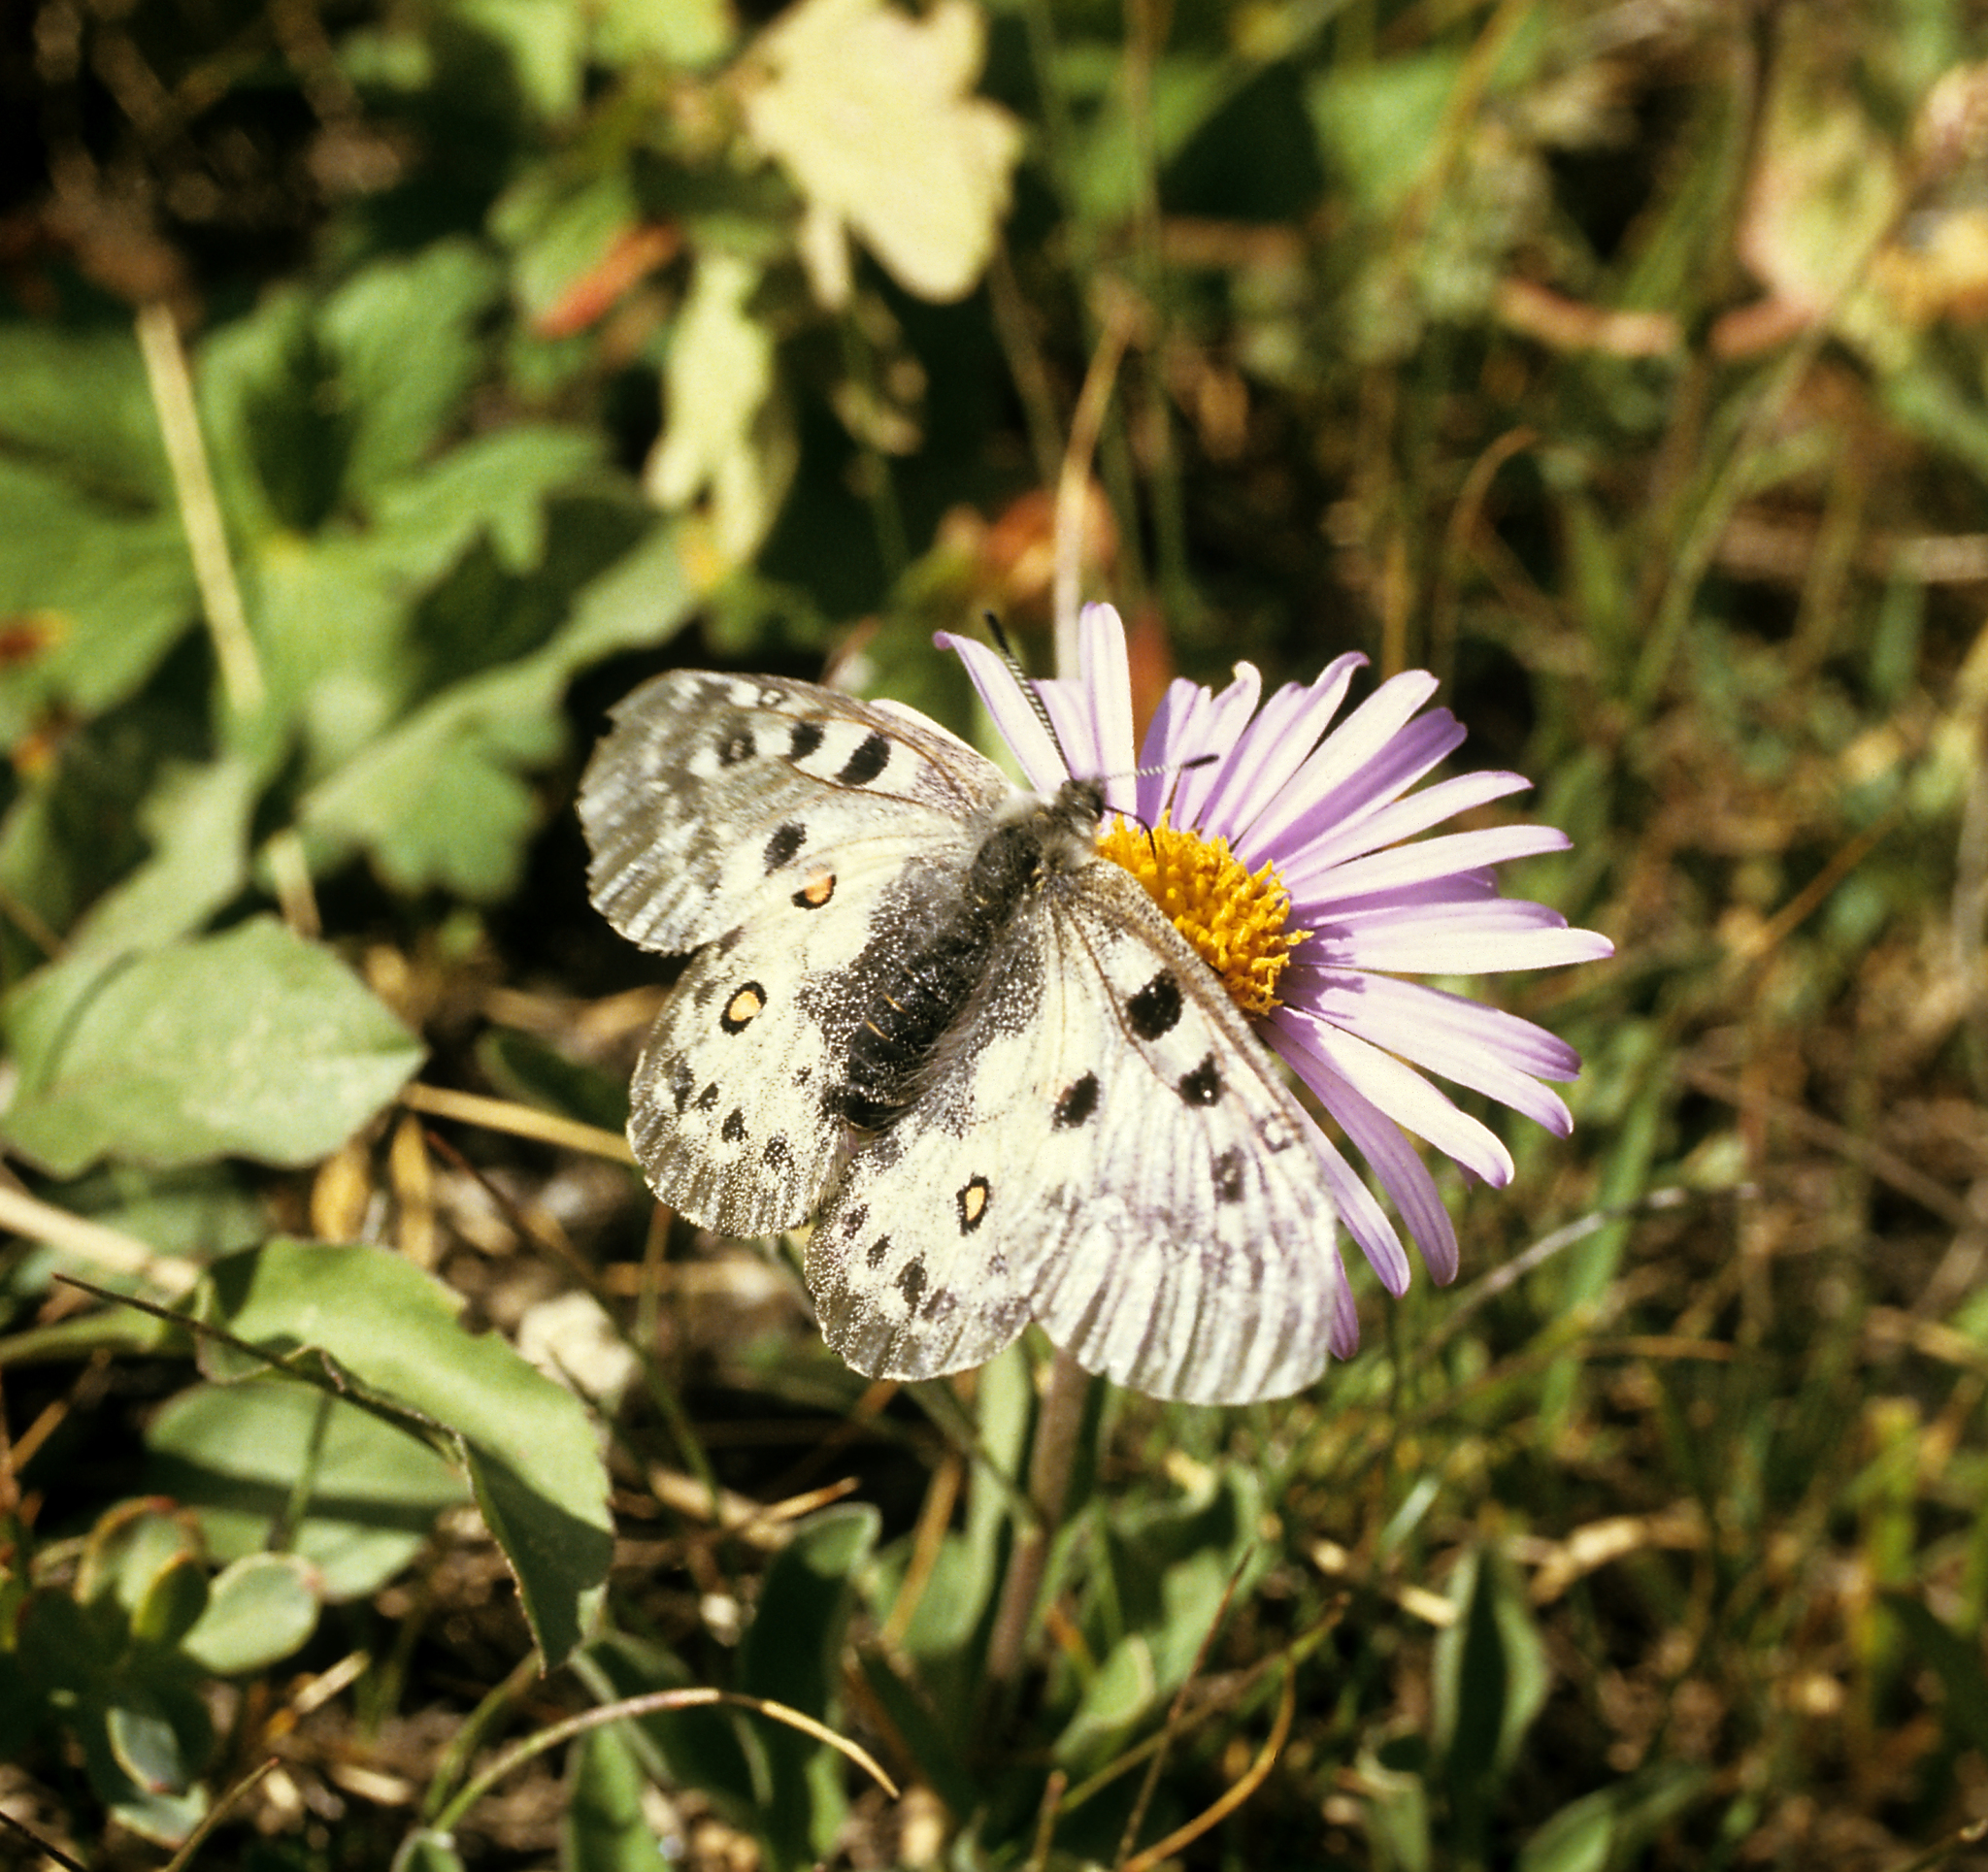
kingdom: Animalia
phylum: Arthropoda
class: Insecta
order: Lepidoptera
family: Papilionidae
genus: Parnassius
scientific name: Parnassius actius
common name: Scarce red apollo
